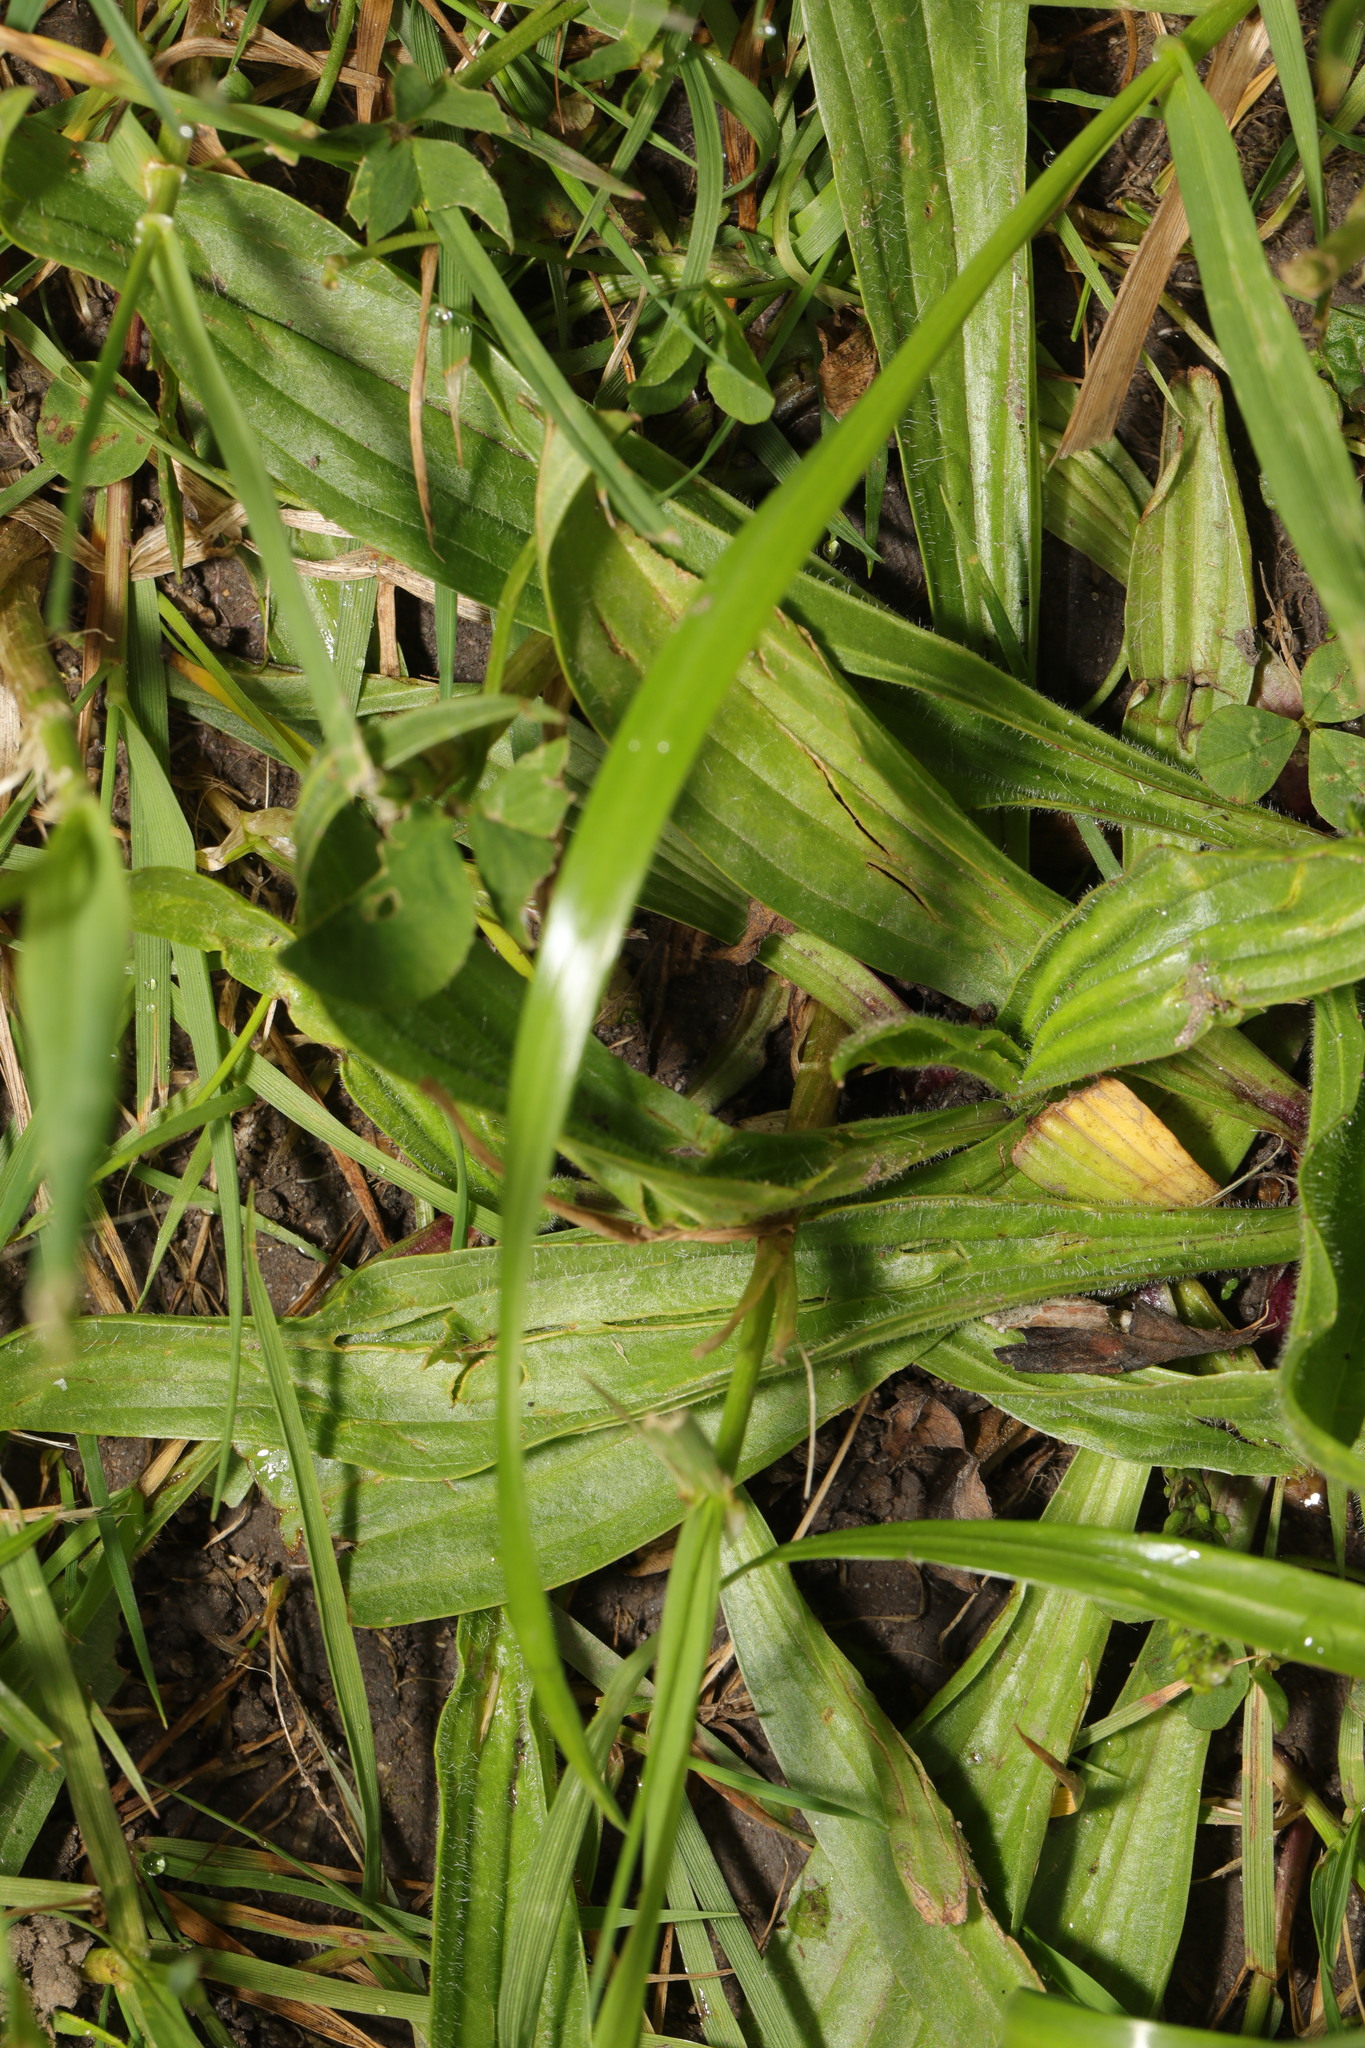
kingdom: Plantae
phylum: Tracheophyta
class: Magnoliopsida
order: Lamiales
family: Plantaginaceae
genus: Plantago
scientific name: Plantago lanceolata
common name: Ribwort plantain
